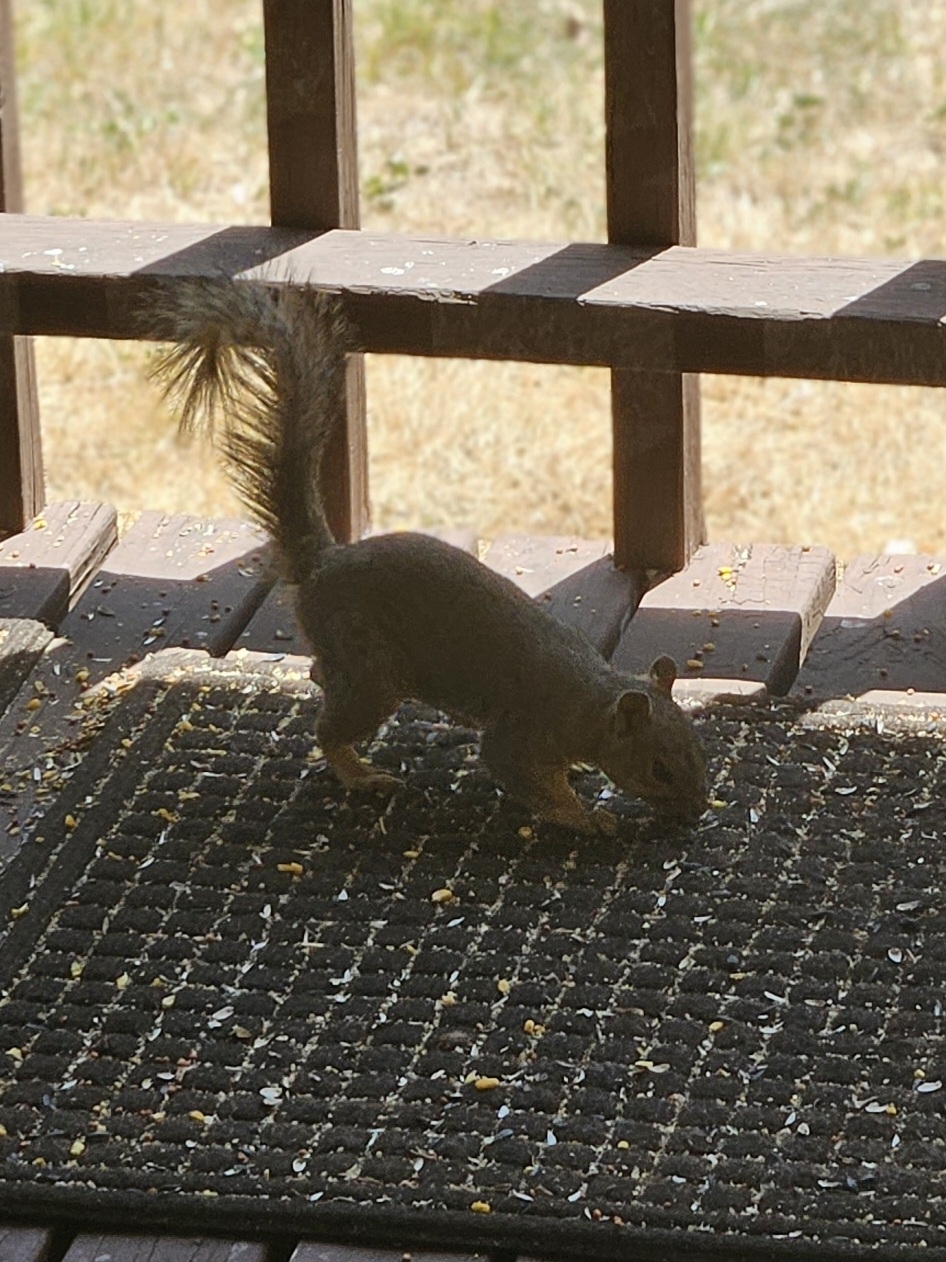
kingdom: Animalia
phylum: Chordata
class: Mammalia
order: Rodentia
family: Sciuridae
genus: Sciurus
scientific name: Sciurus niger
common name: Fox squirrel
